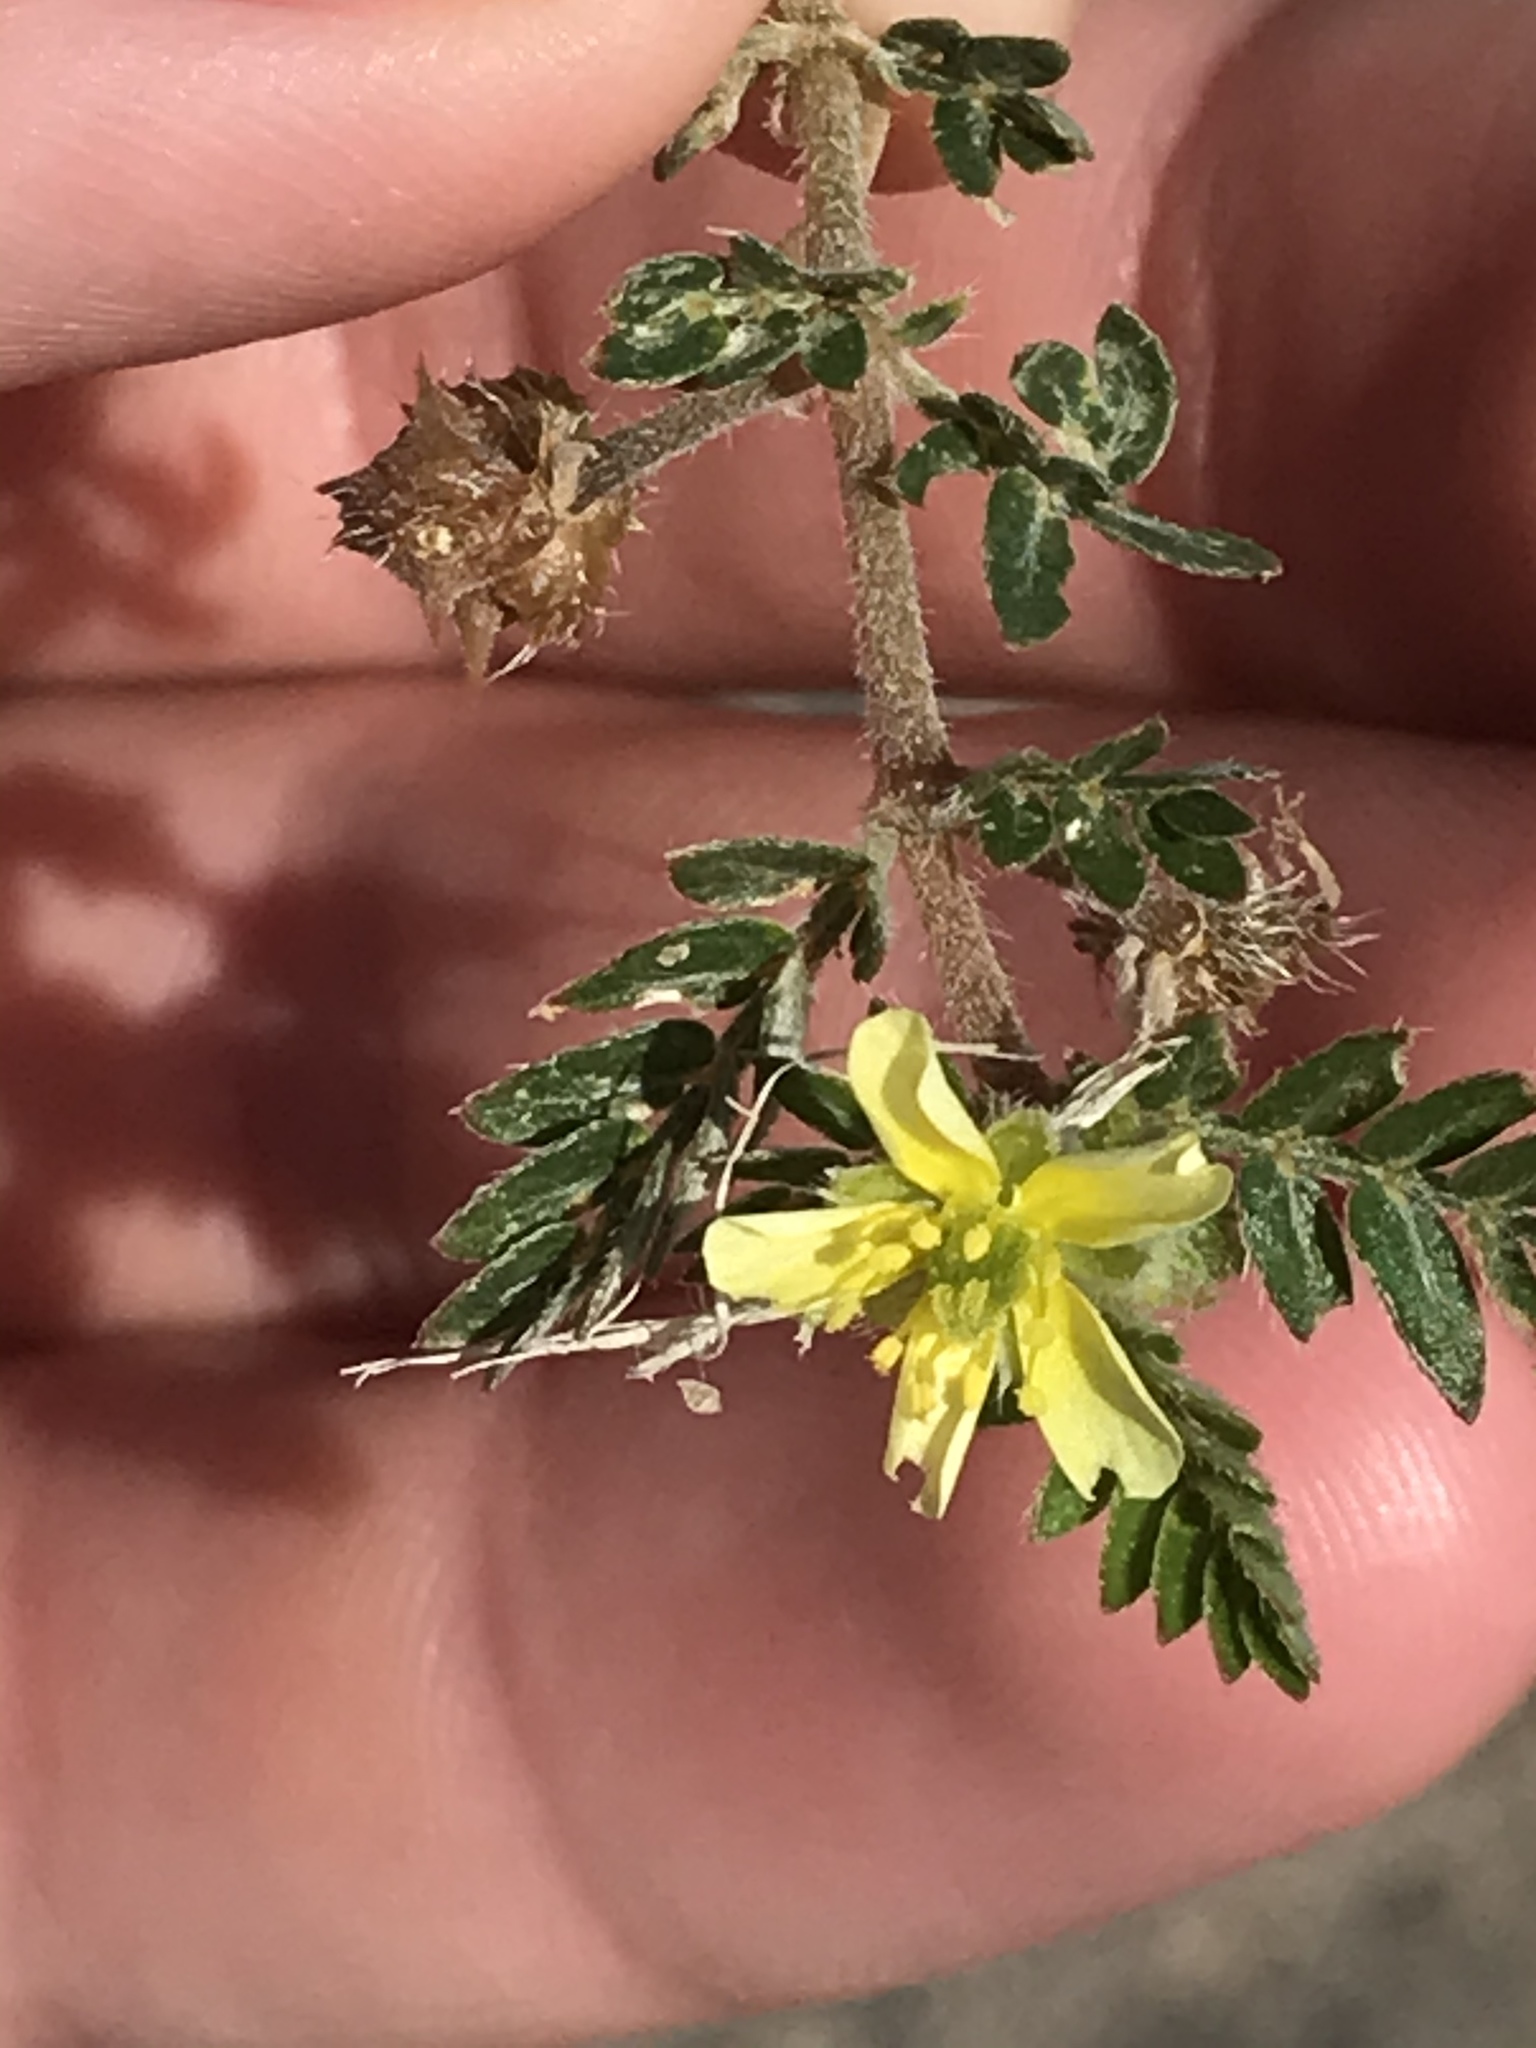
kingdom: Plantae
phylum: Tracheophyta
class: Magnoliopsida
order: Zygophyllales
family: Zygophyllaceae
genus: Tribulus
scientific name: Tribulus terrestris
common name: Puncturevine
